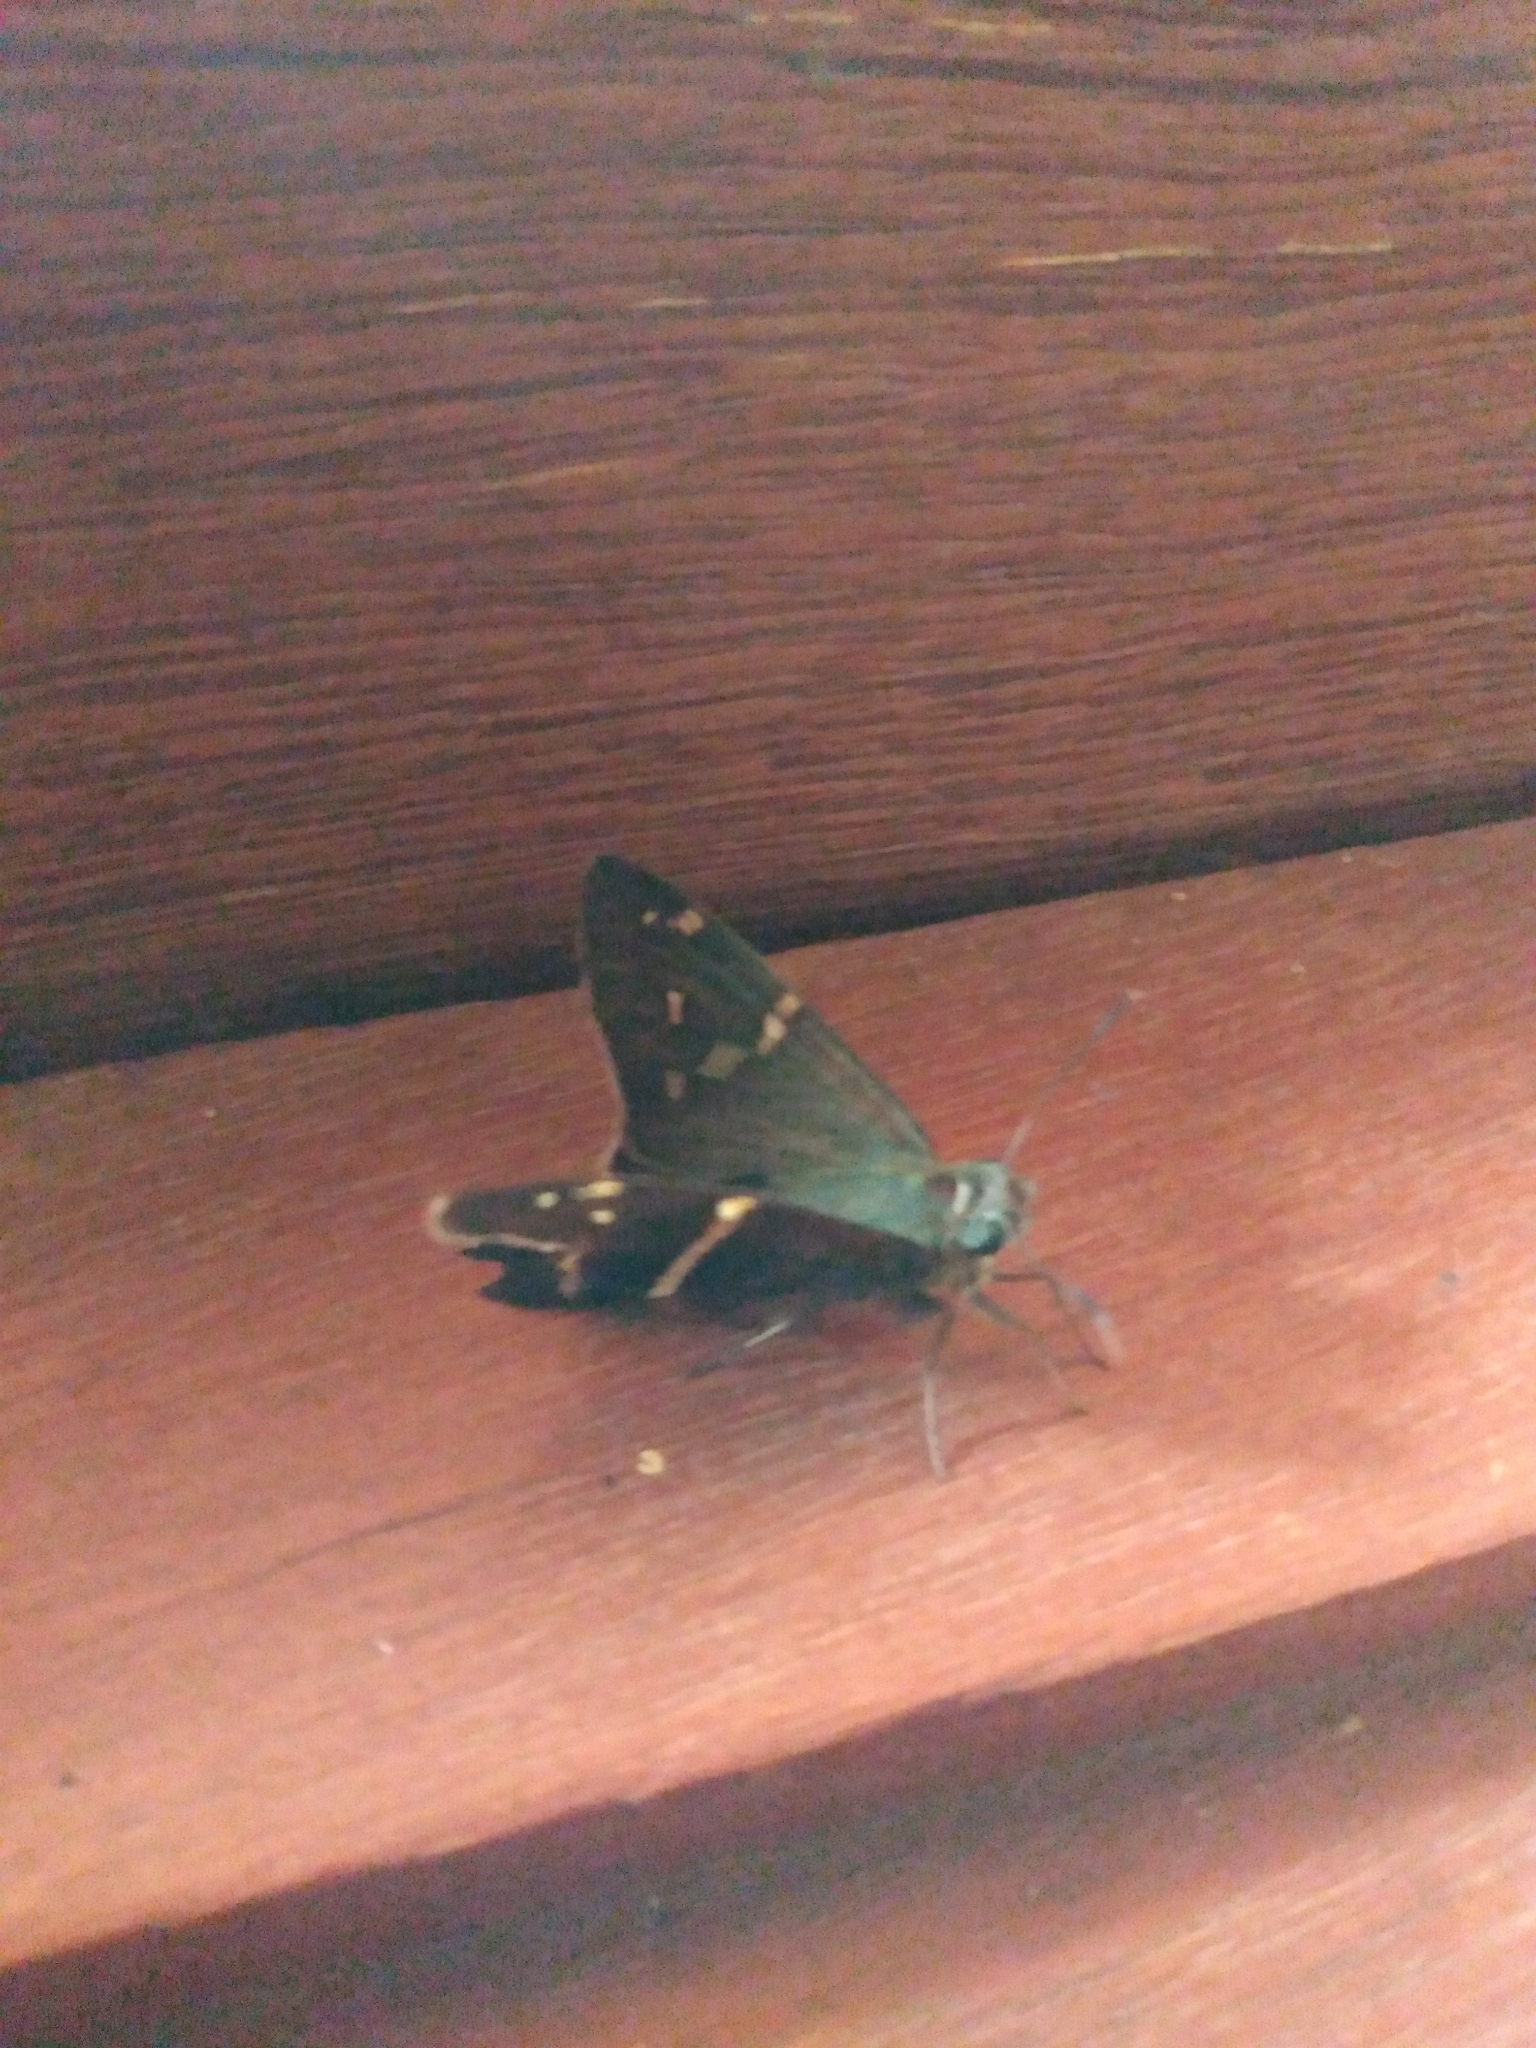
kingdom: Animalia
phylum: Arthropoda
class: Insecta
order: Lepidoptera
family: Hesperiidae
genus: Urbanus
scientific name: Urbanus proteus
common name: Long-tailed skipper
